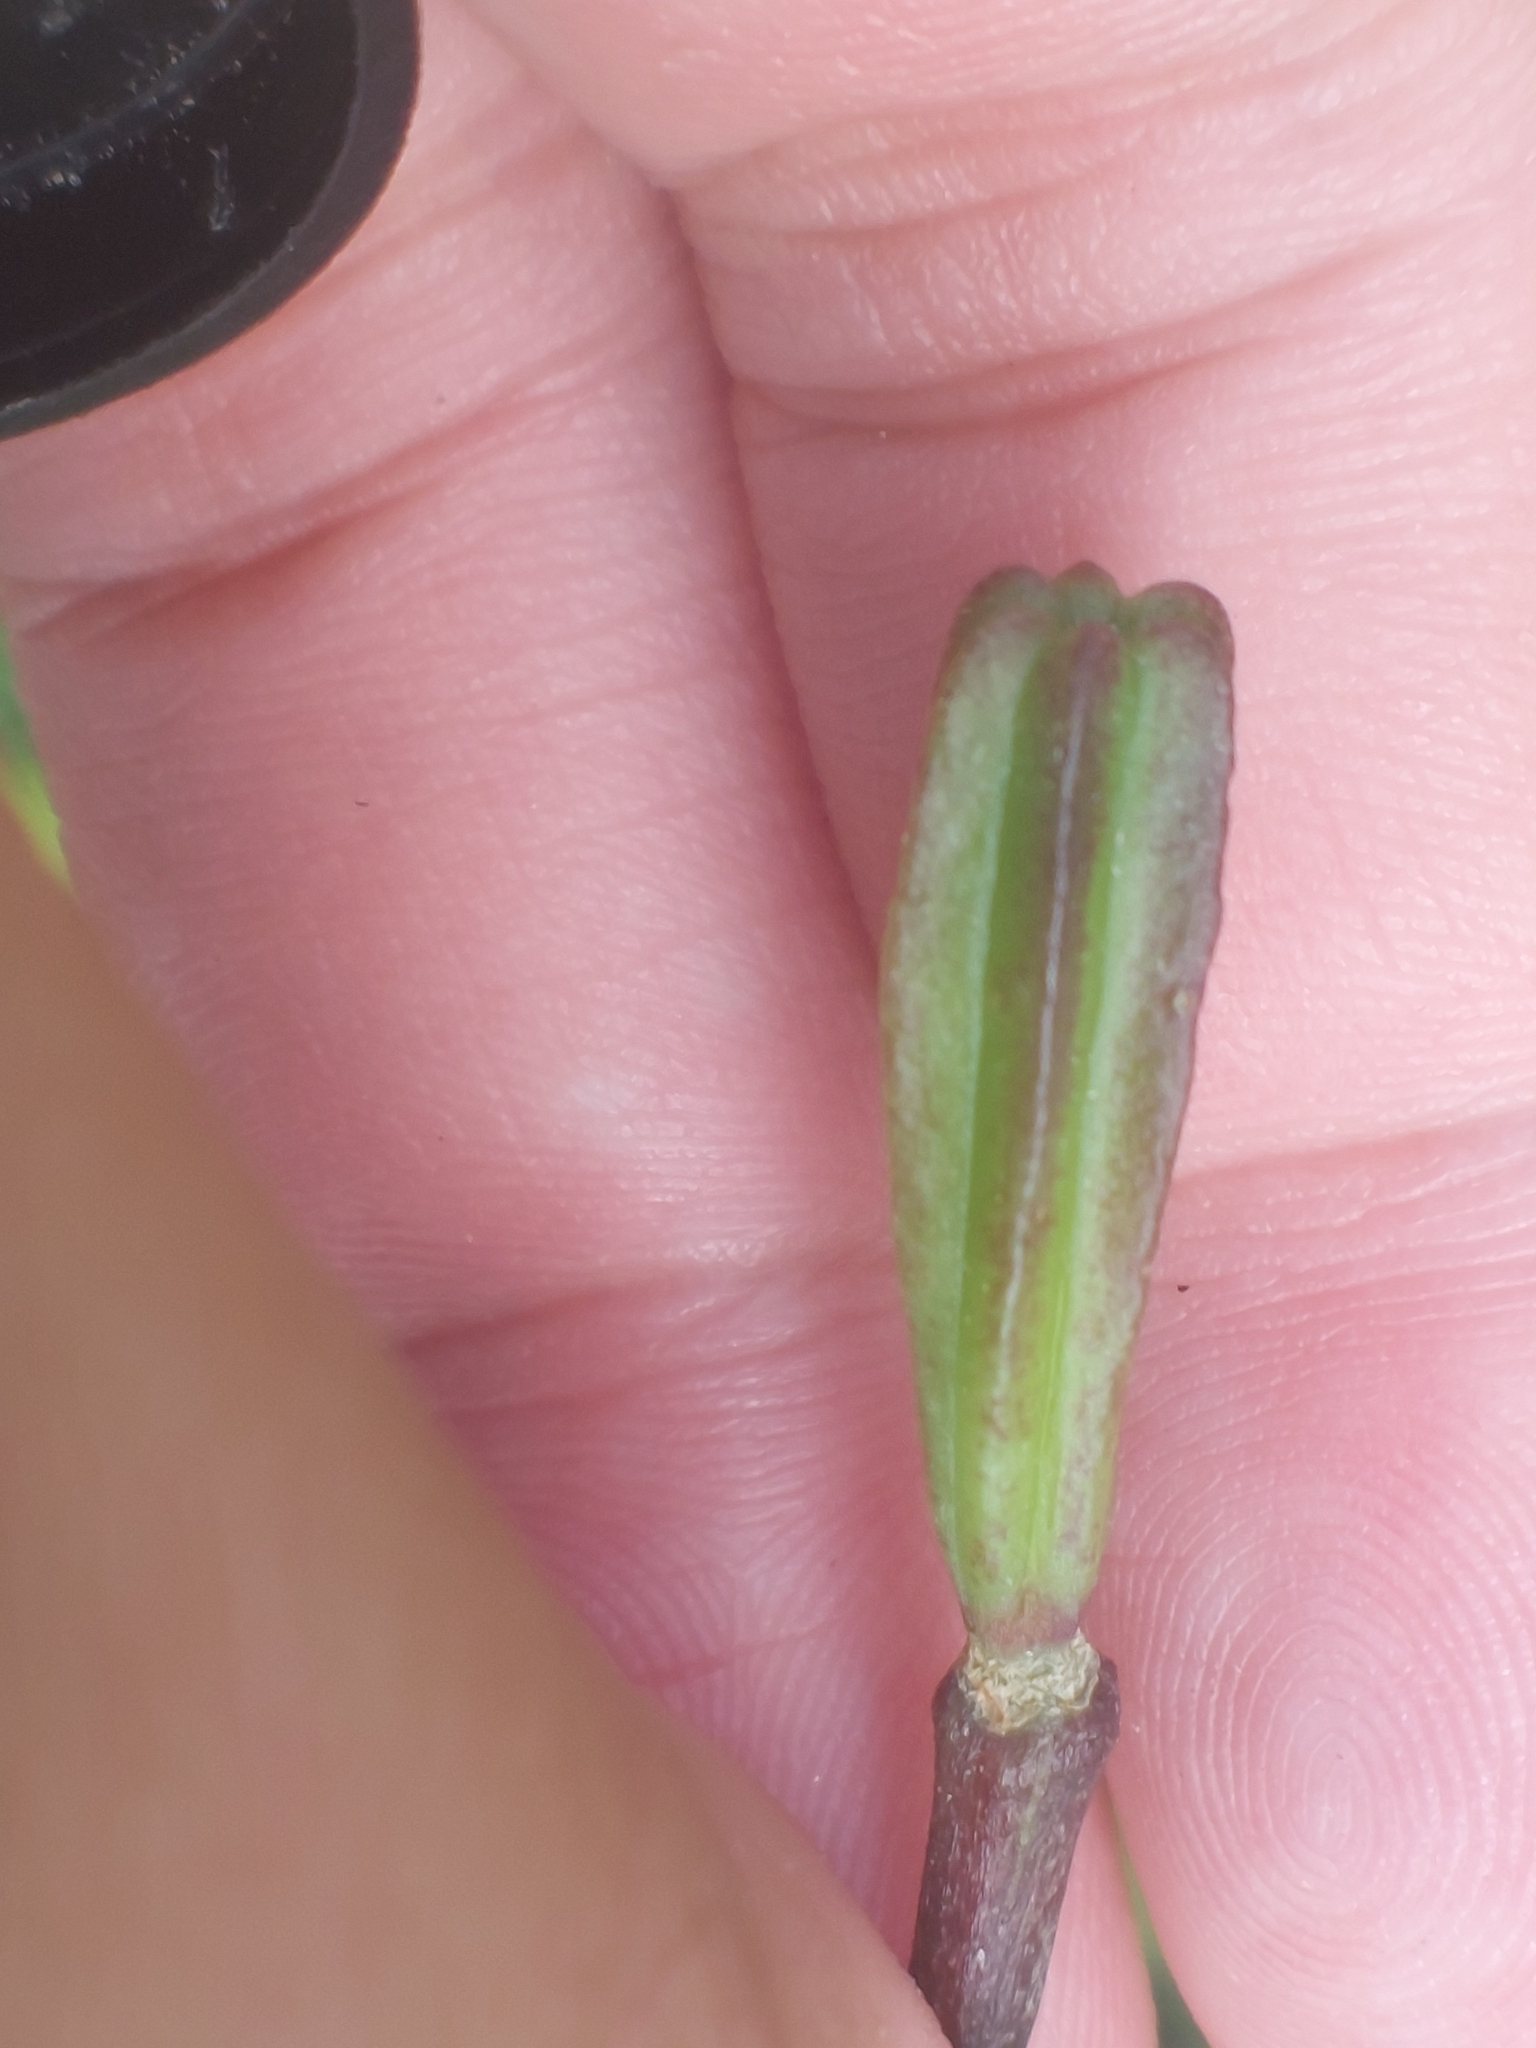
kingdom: Plantae
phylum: Tracheophyta
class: Liliopsida
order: Liliales
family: Liliaceae
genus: Lilium
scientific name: Lilium martagon
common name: Martagon lily
